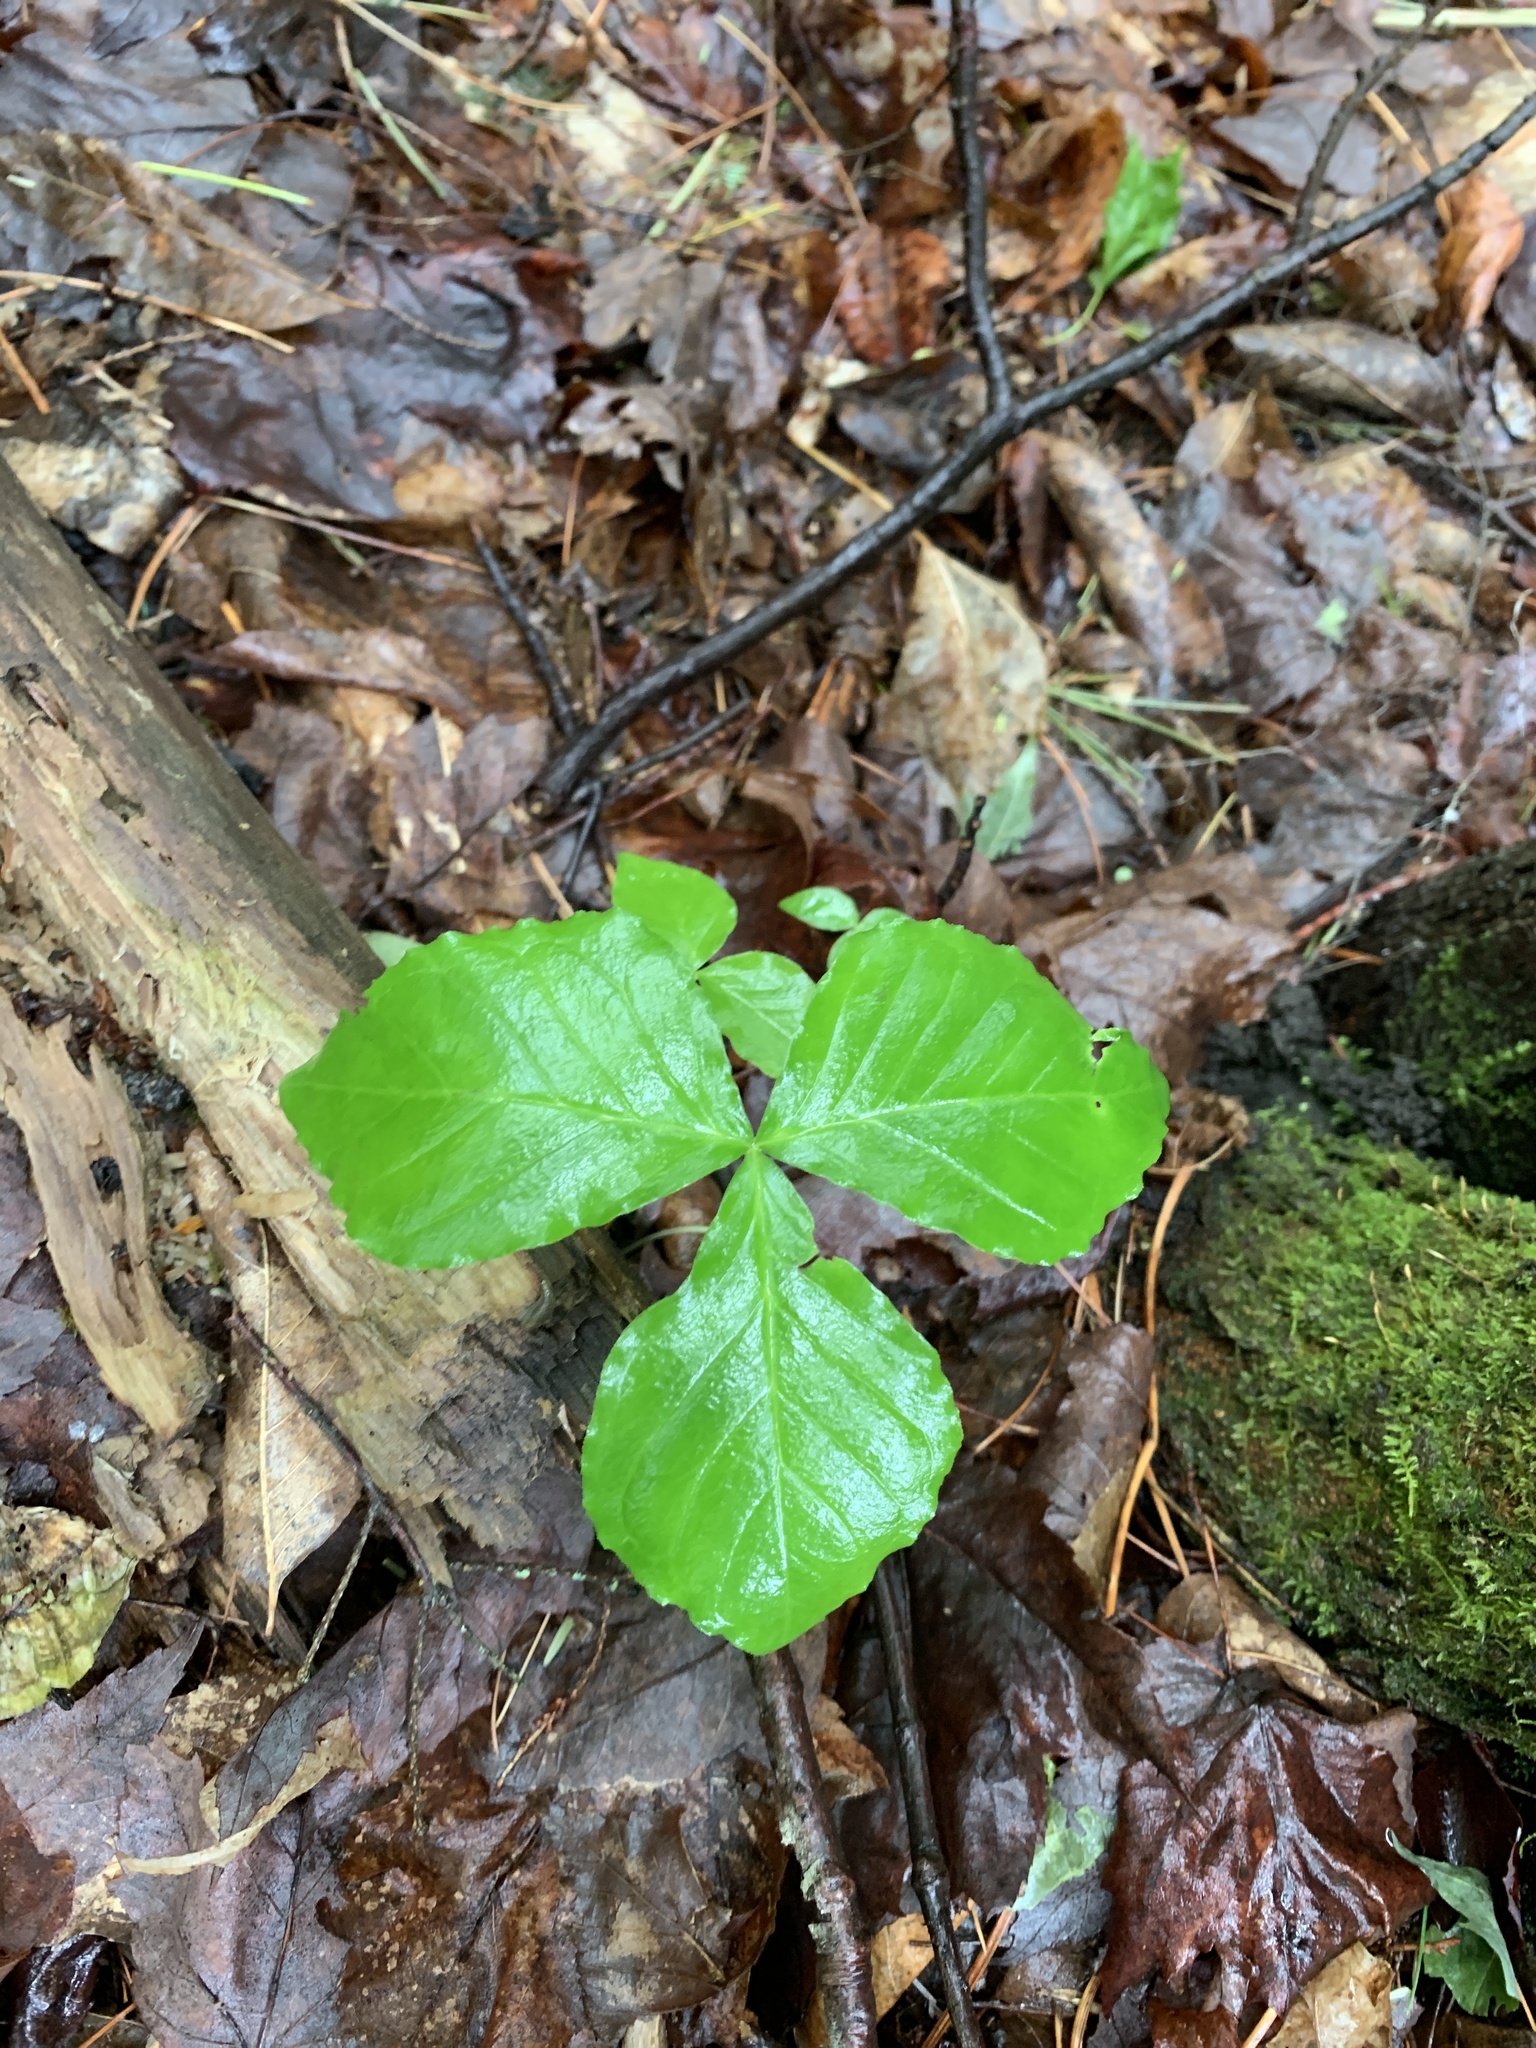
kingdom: Plantae
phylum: Tracheophyta
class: Liliopsida
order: Alismatales
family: Araceae
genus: Arisaema
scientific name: Arisaema triphyllum
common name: Jack-in-the-pulpit
